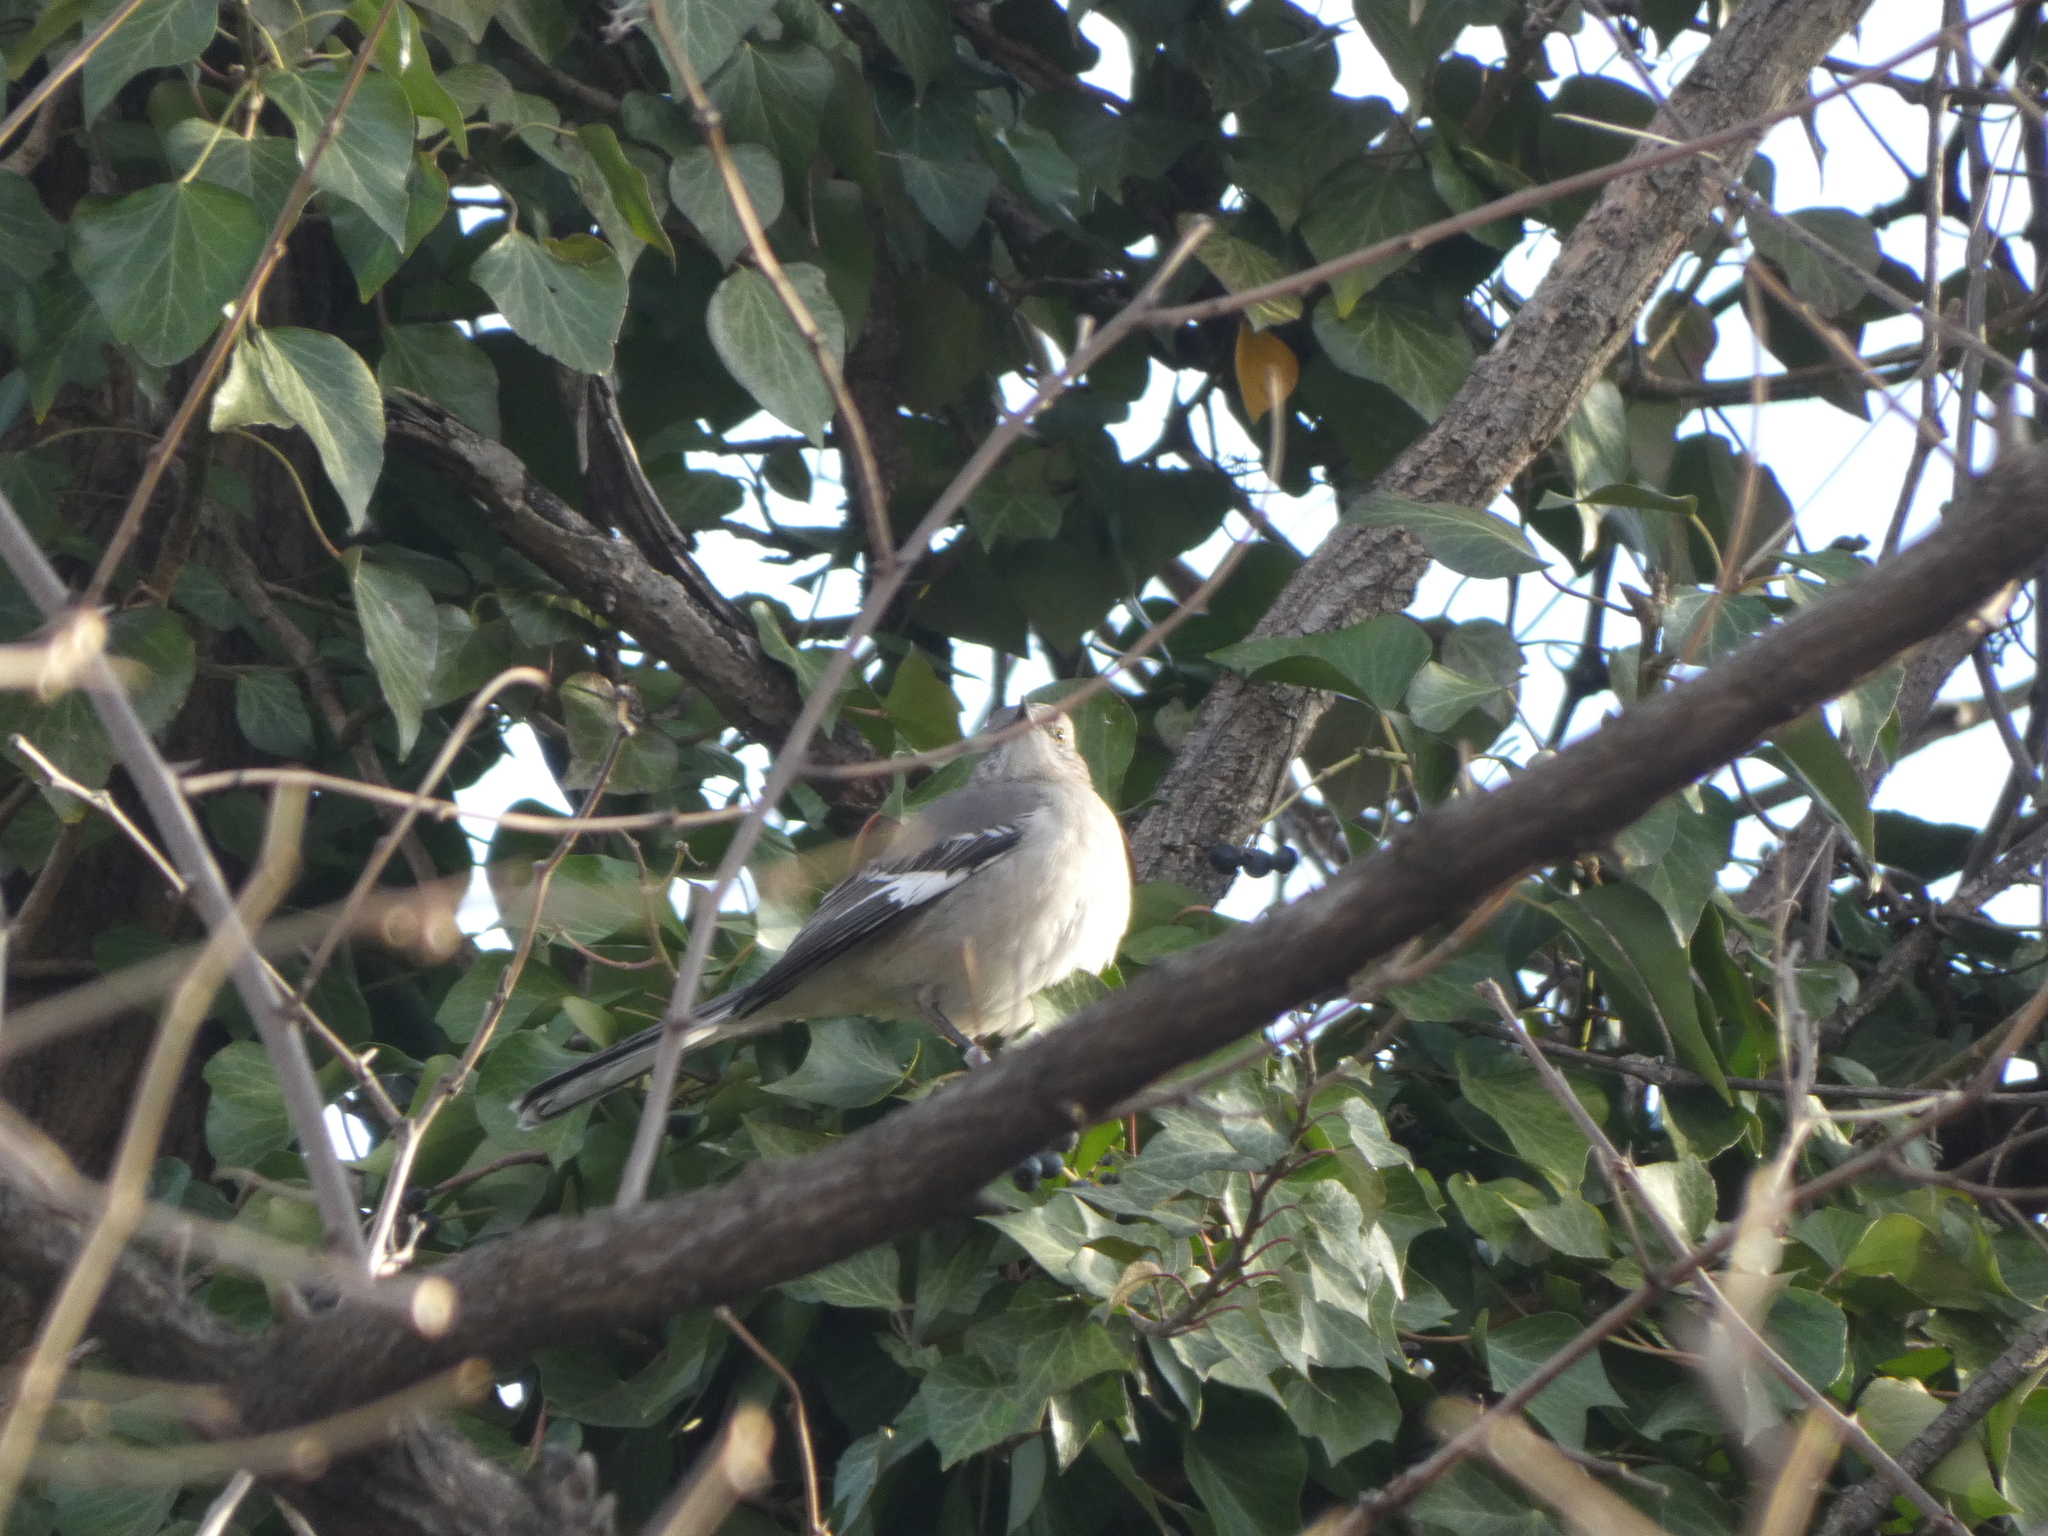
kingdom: Animalia
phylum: Chordata
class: Aves
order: Passeriformes
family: Mimidae
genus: Mimus
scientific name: Mimus polyglottos
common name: Northern mockingbird
